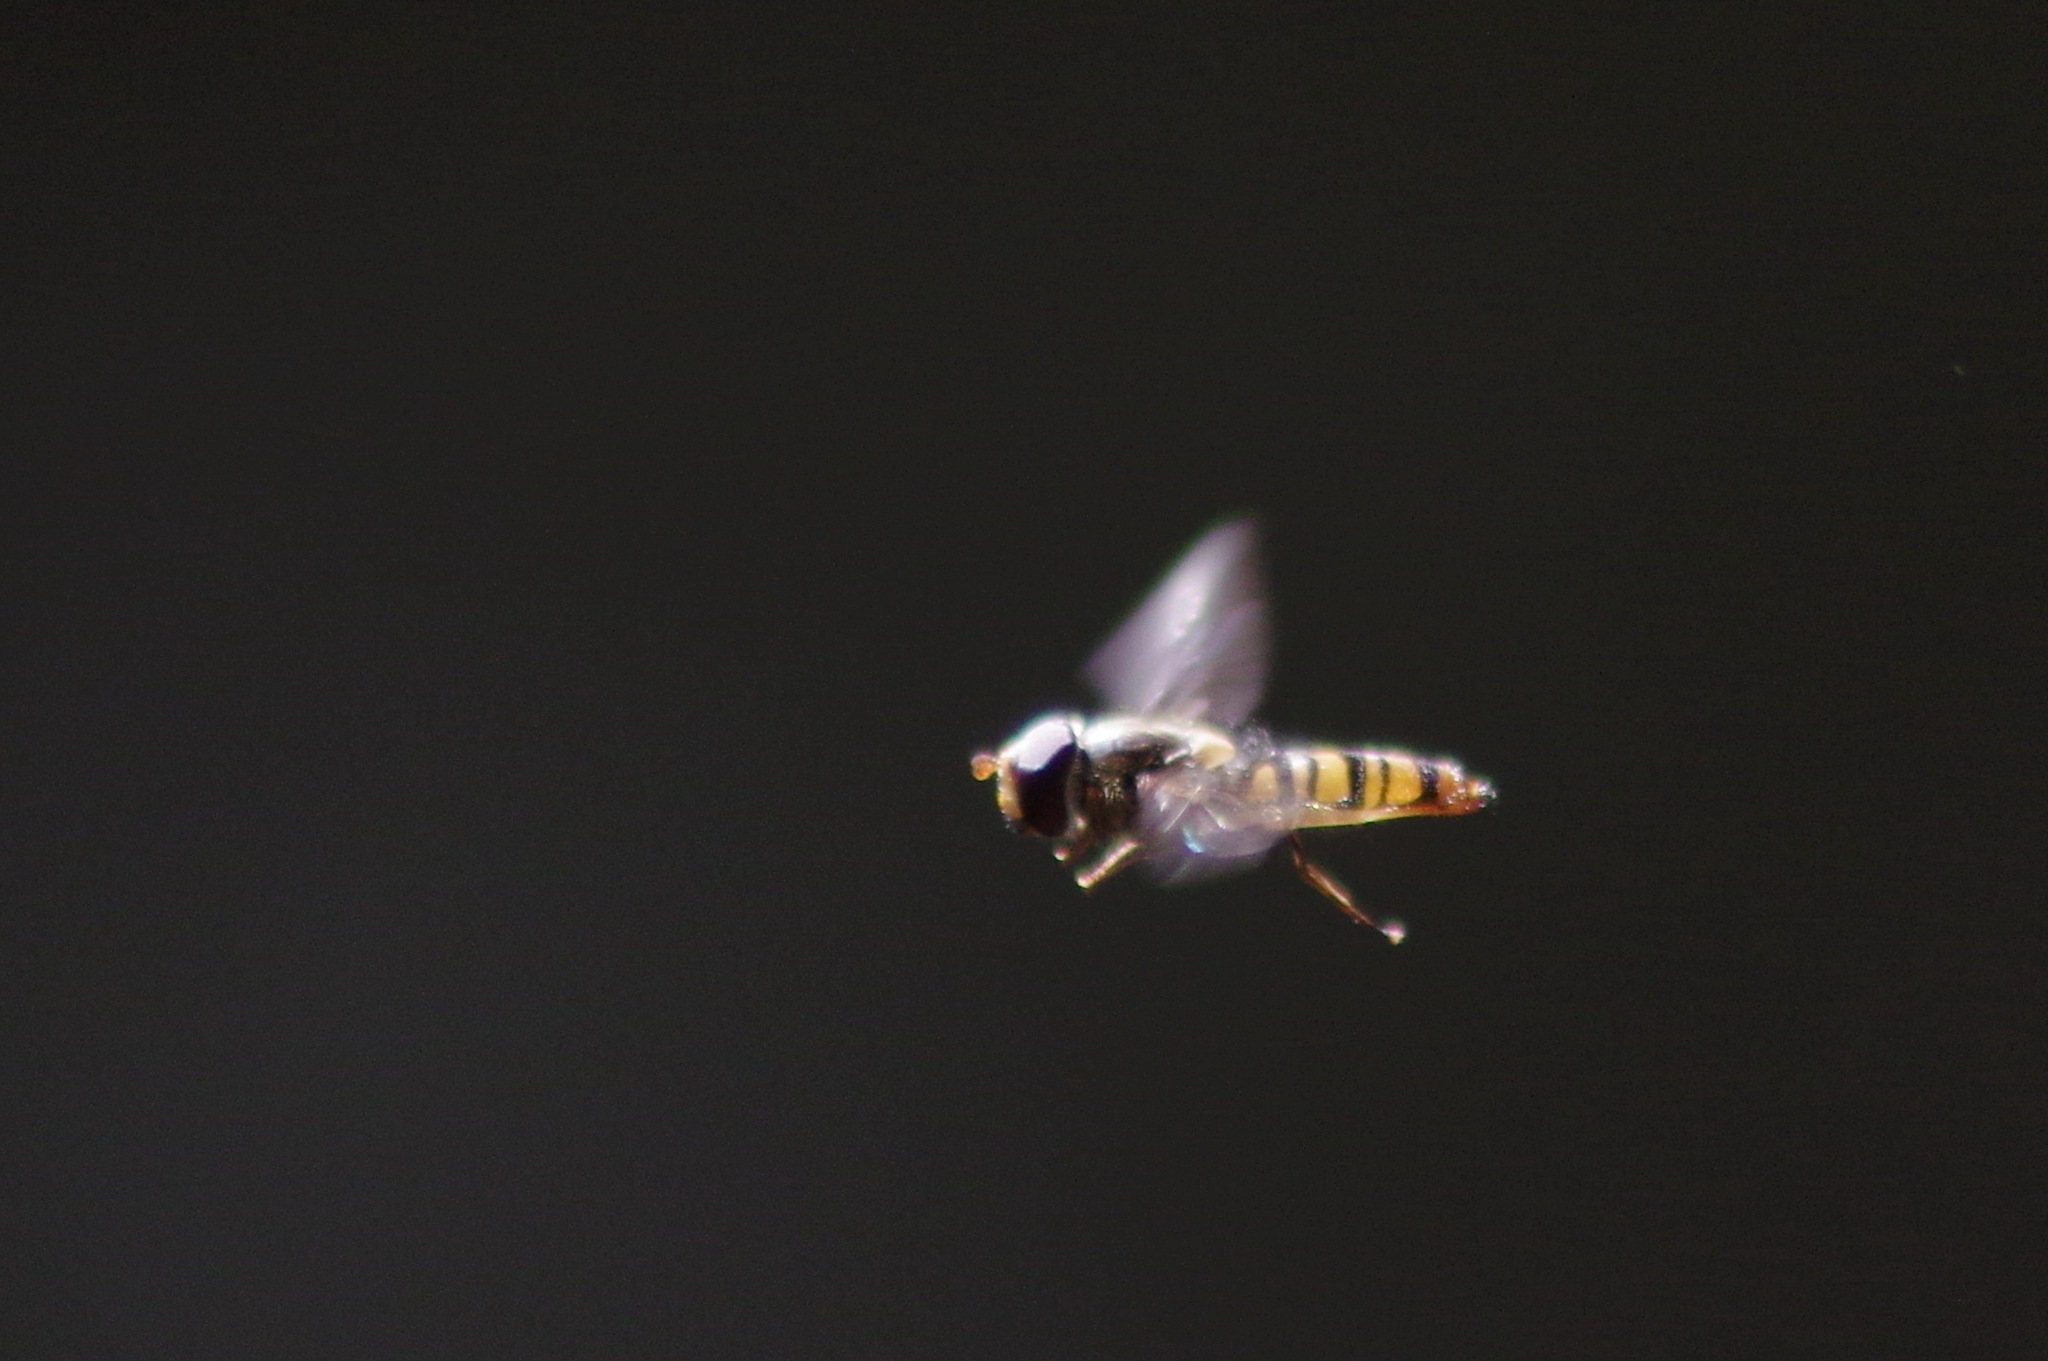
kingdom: Animalia
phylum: Arthropoda
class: Insecta
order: Diptera
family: Syrphidae
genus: Episyrphus
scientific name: Episyrphus balteatus
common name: Marmalade hoverfly
